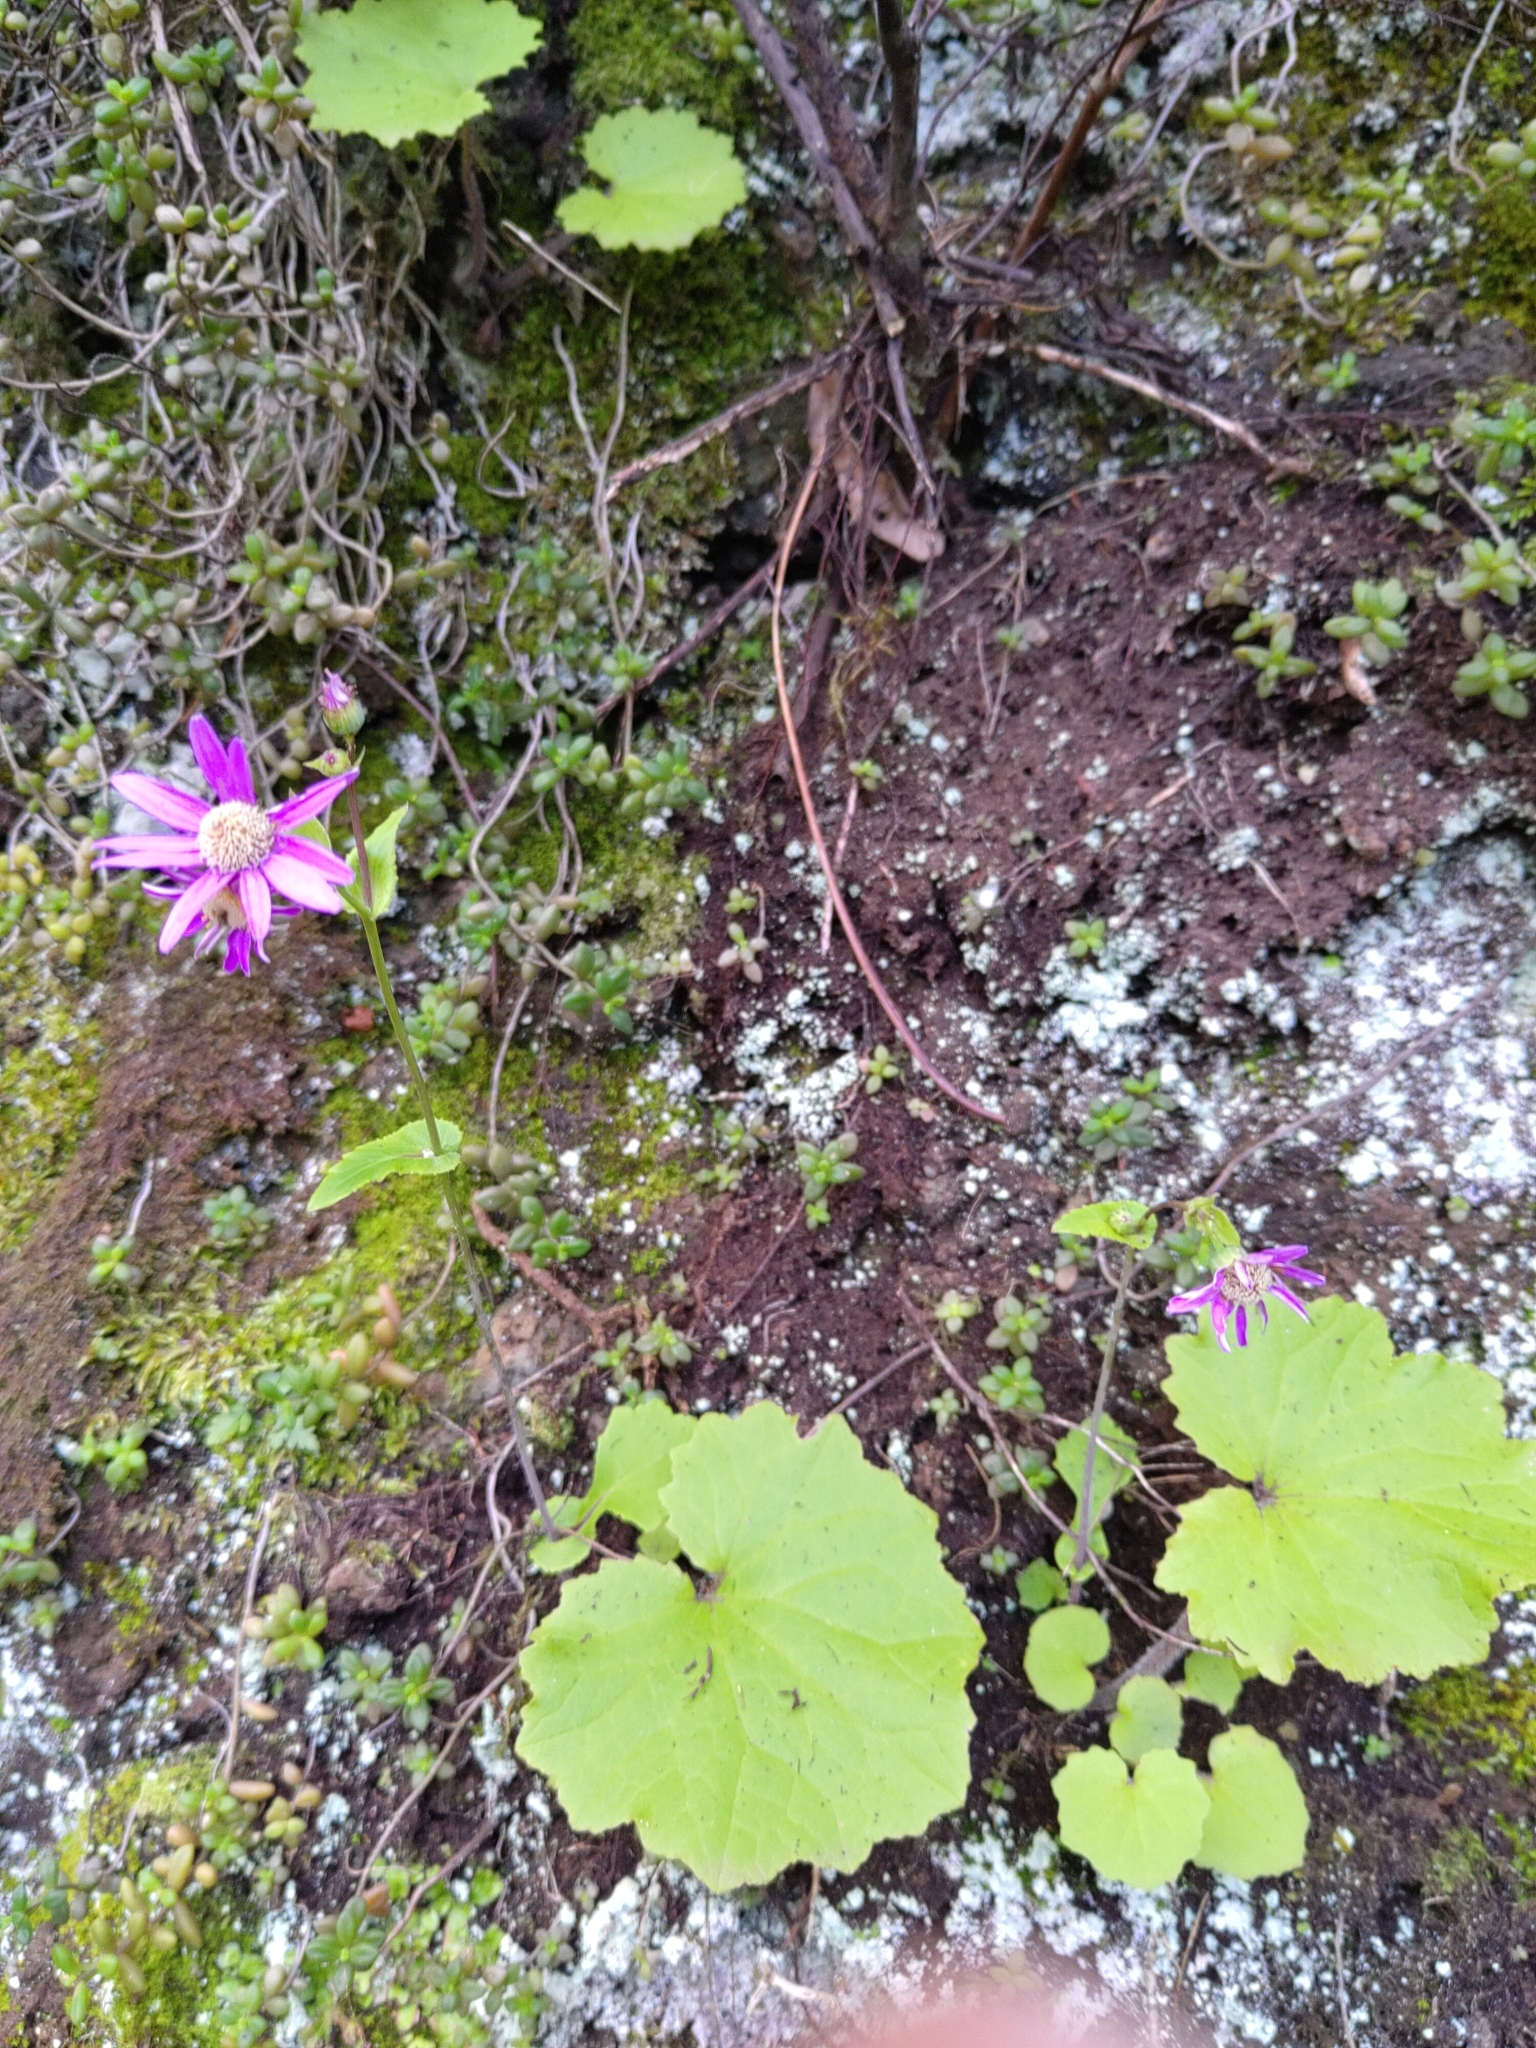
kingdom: Plantae
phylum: Tracheophyta
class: Magnoliopsida
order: Asterales
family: Asteraceae
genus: Pericallis
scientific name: Pericallis tussilaginis
